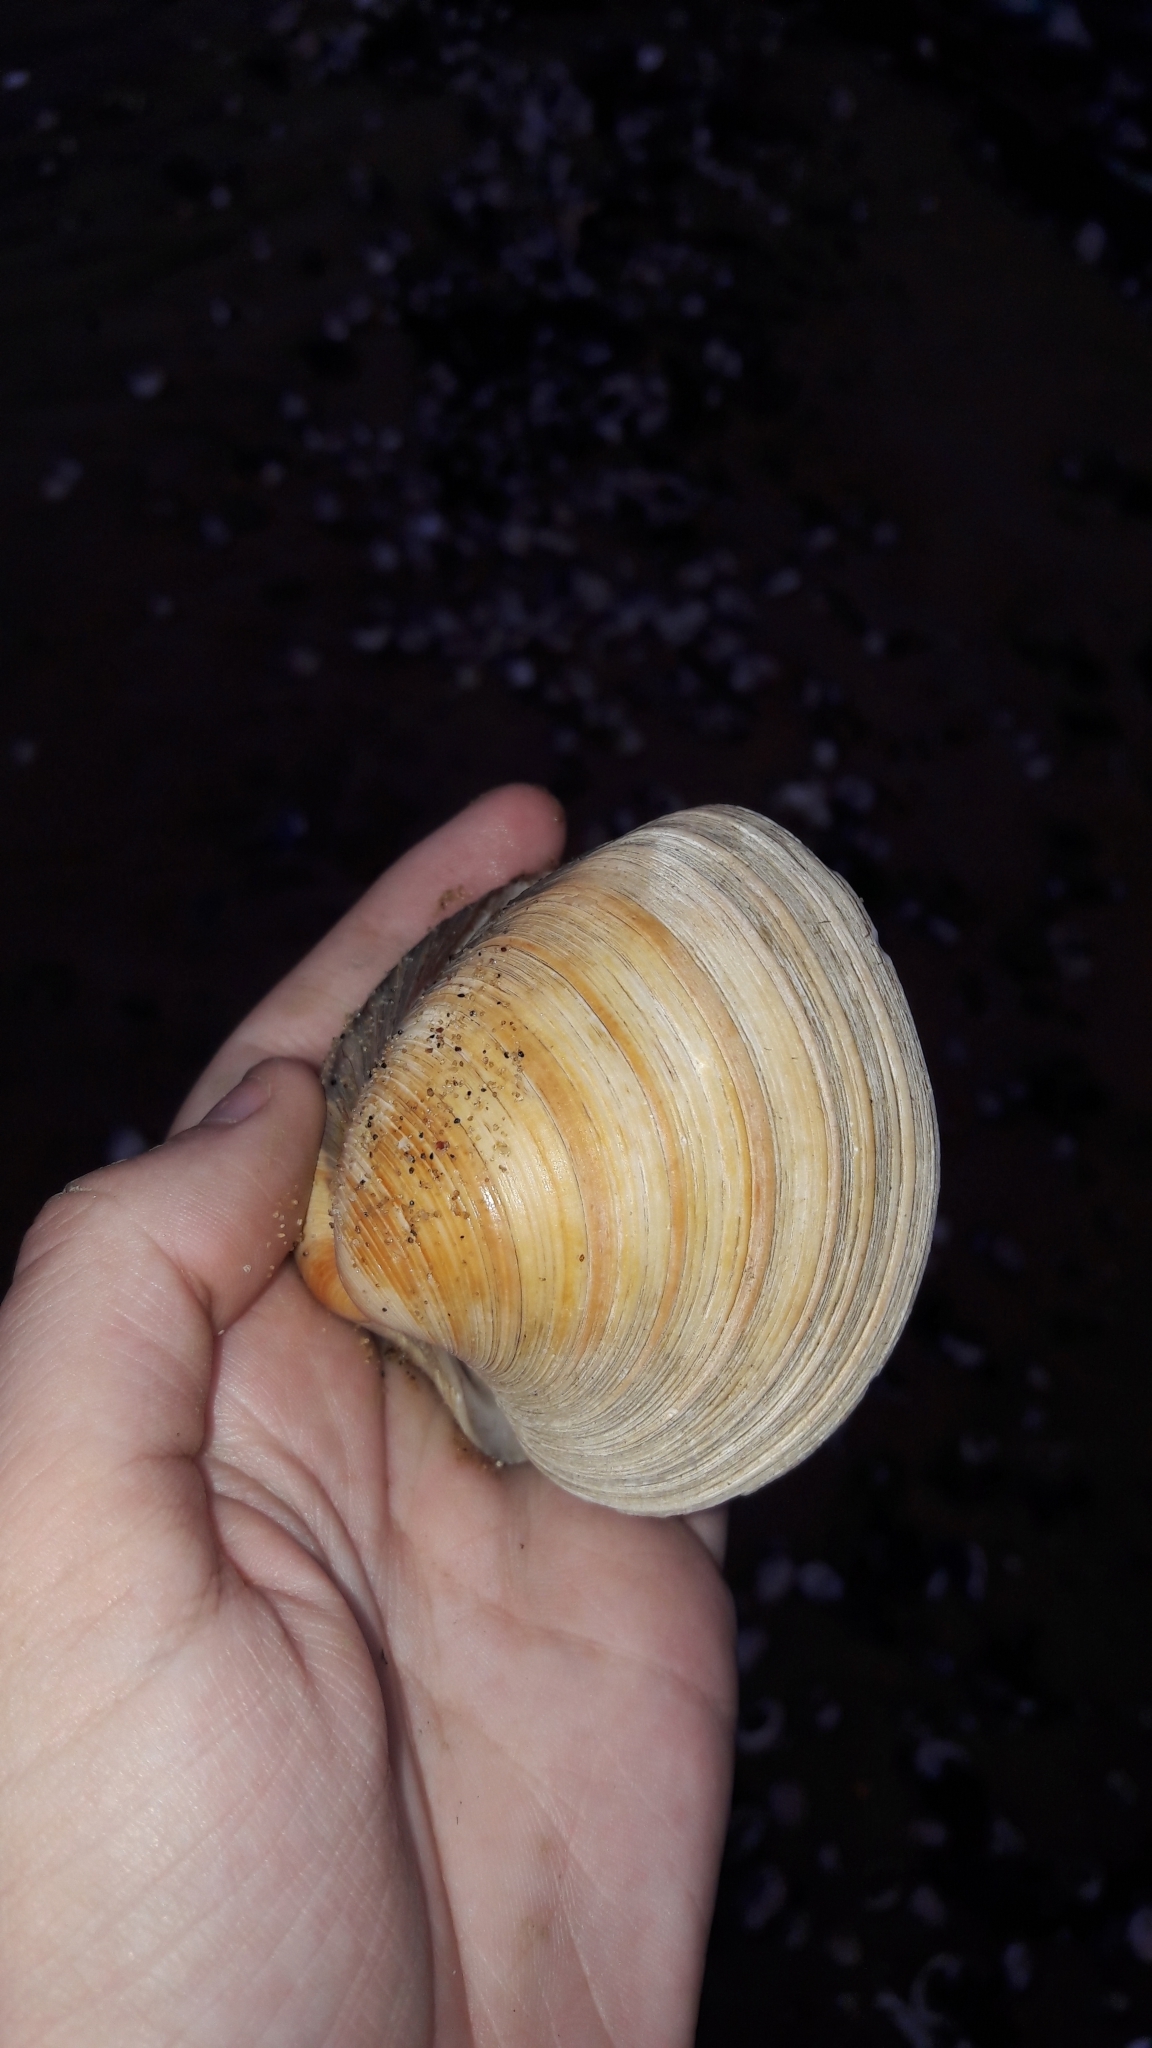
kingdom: Animalia
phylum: Mollusca
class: Bivalvia
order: Venerida
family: Veneridae
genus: Mercenaria
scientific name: Mercenaria mercenaria
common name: American hard-shelled clam
